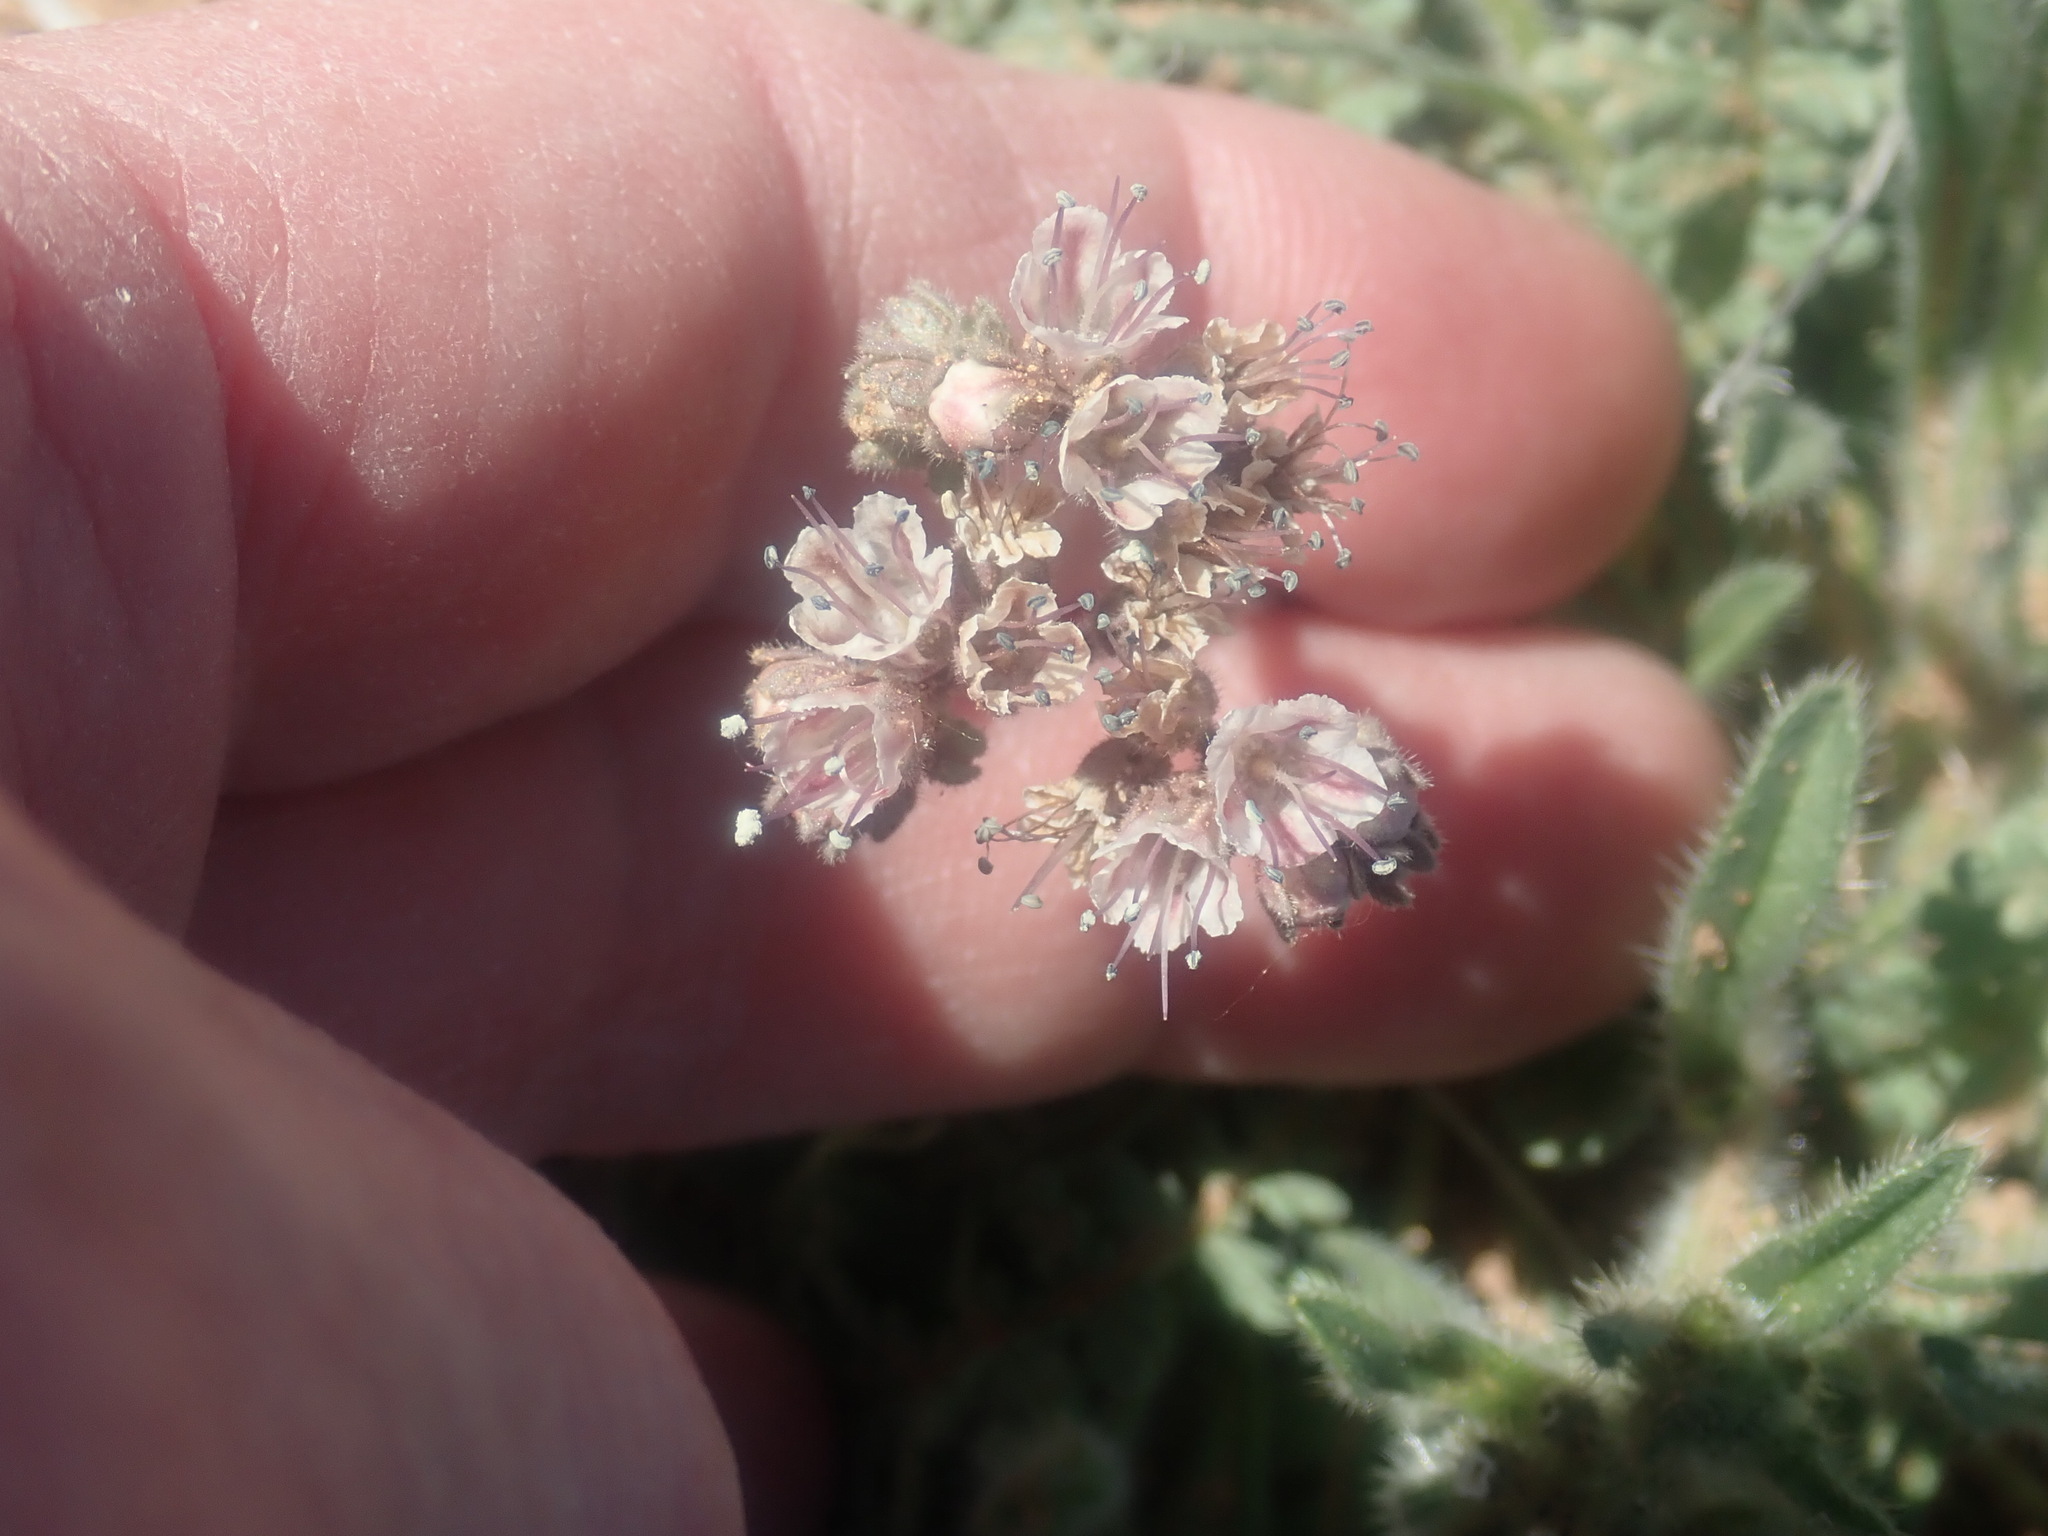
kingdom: Plantae
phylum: Tracheophyta
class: Magnoliopsida
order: Boraginales
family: Hydrophyllaceae
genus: Phacelia
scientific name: Phacelia arizonica
